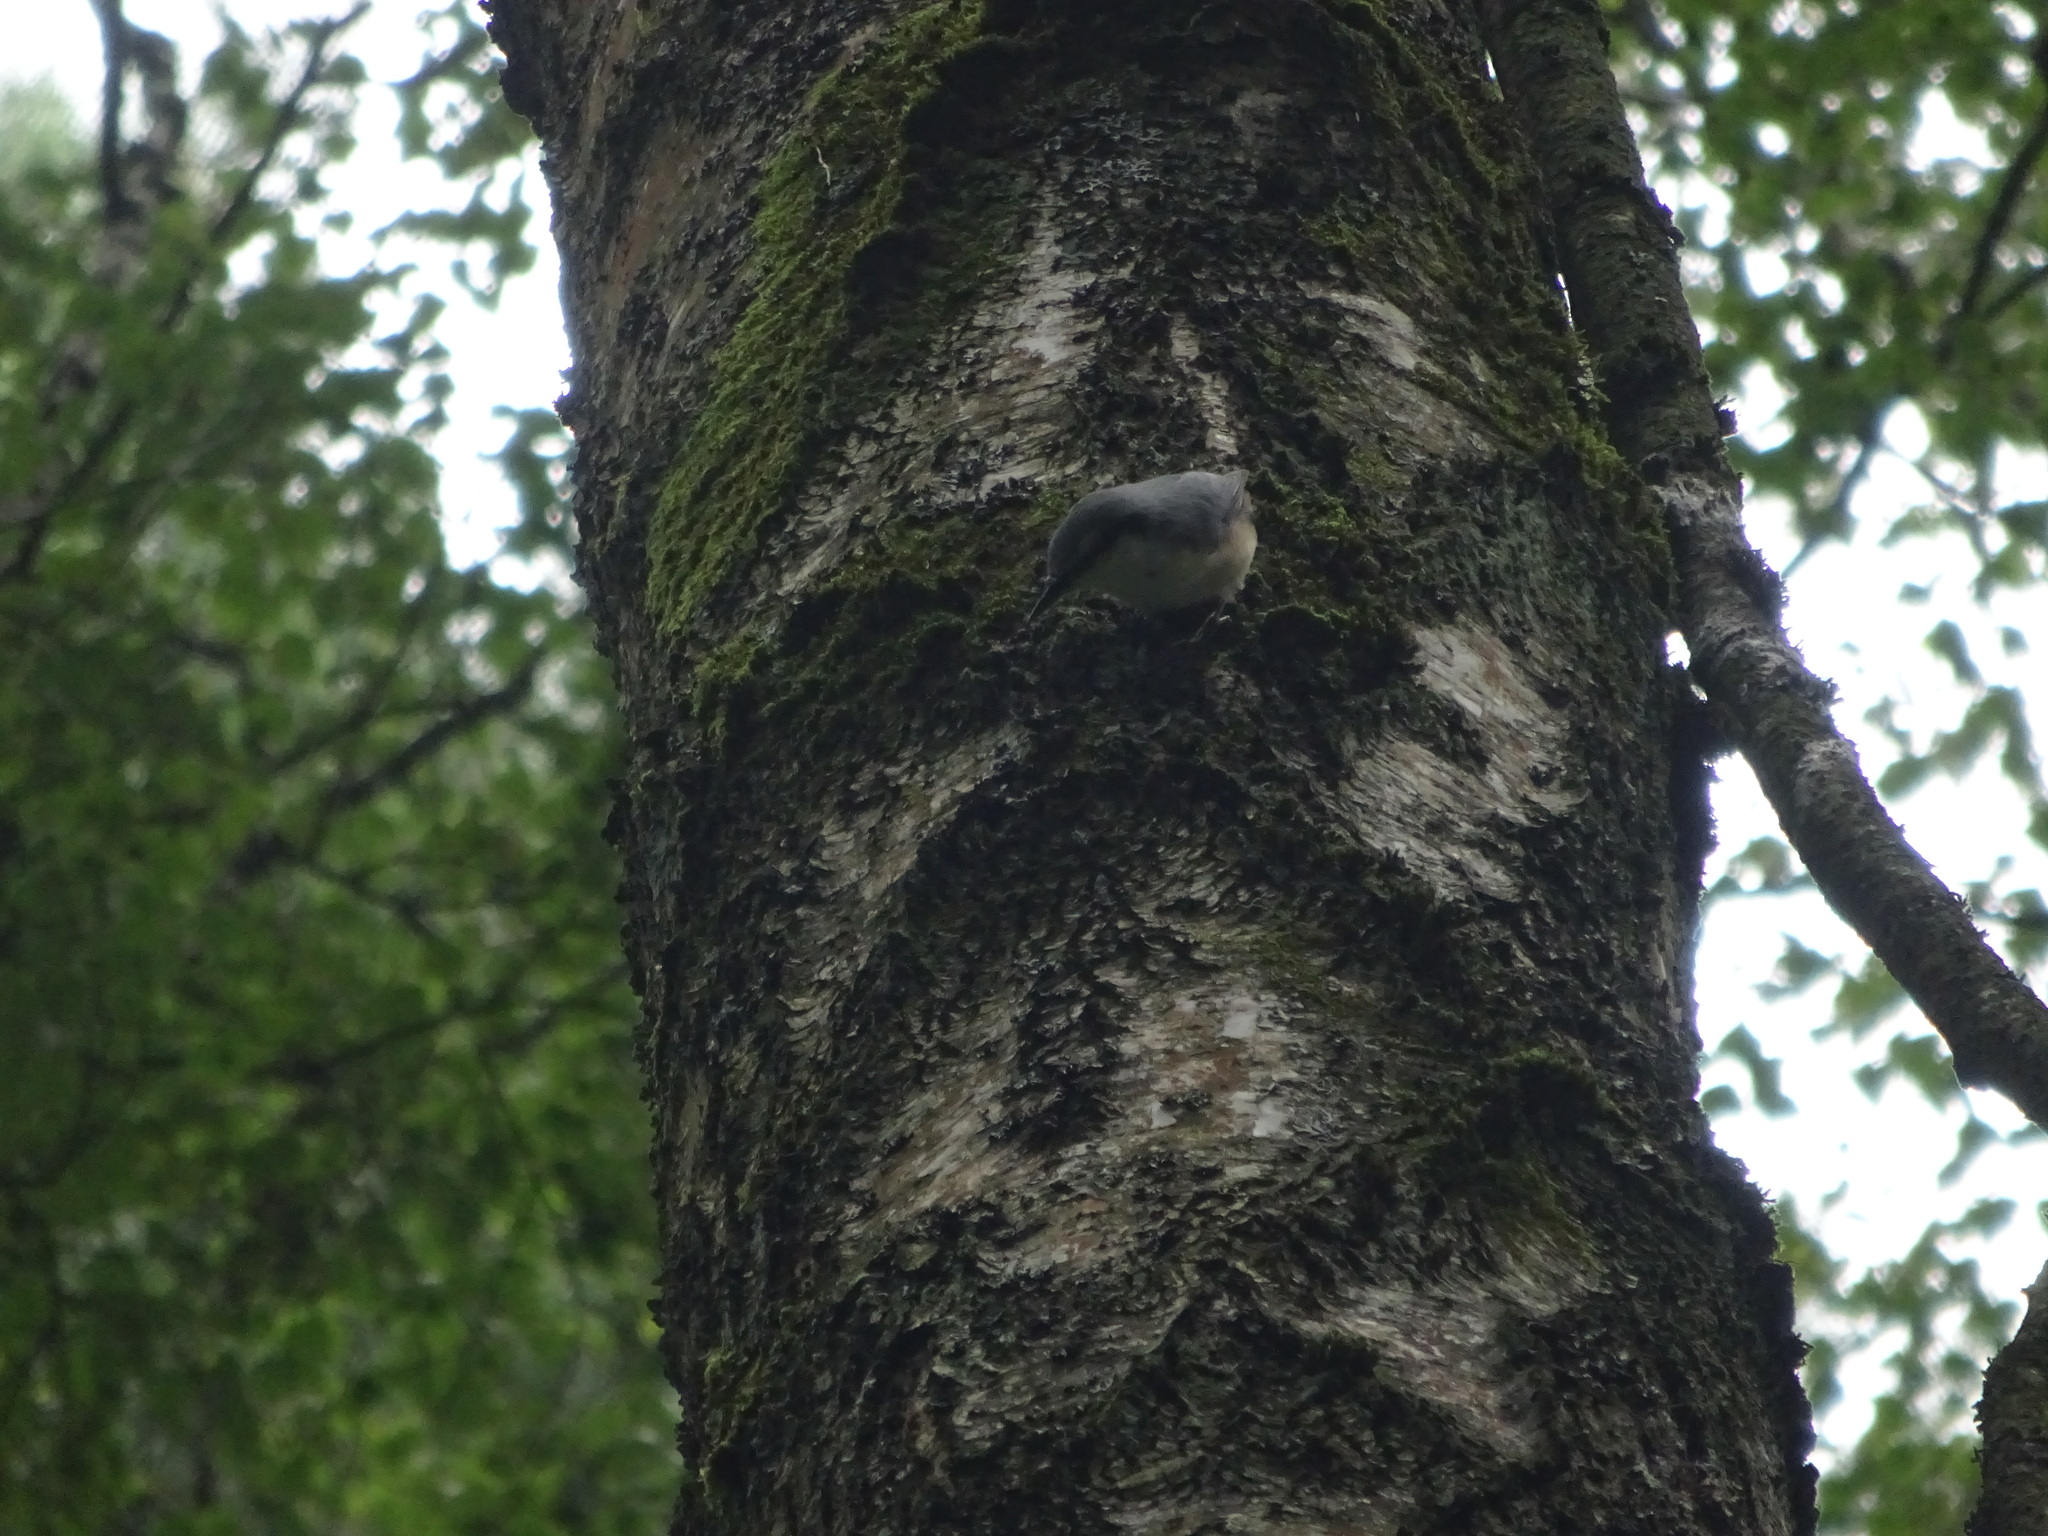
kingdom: Animalia
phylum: Chordata
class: Aves
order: Passeriformes
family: Sittidae
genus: Sitta
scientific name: Sitta europaea
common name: Eurasian nuthatch
